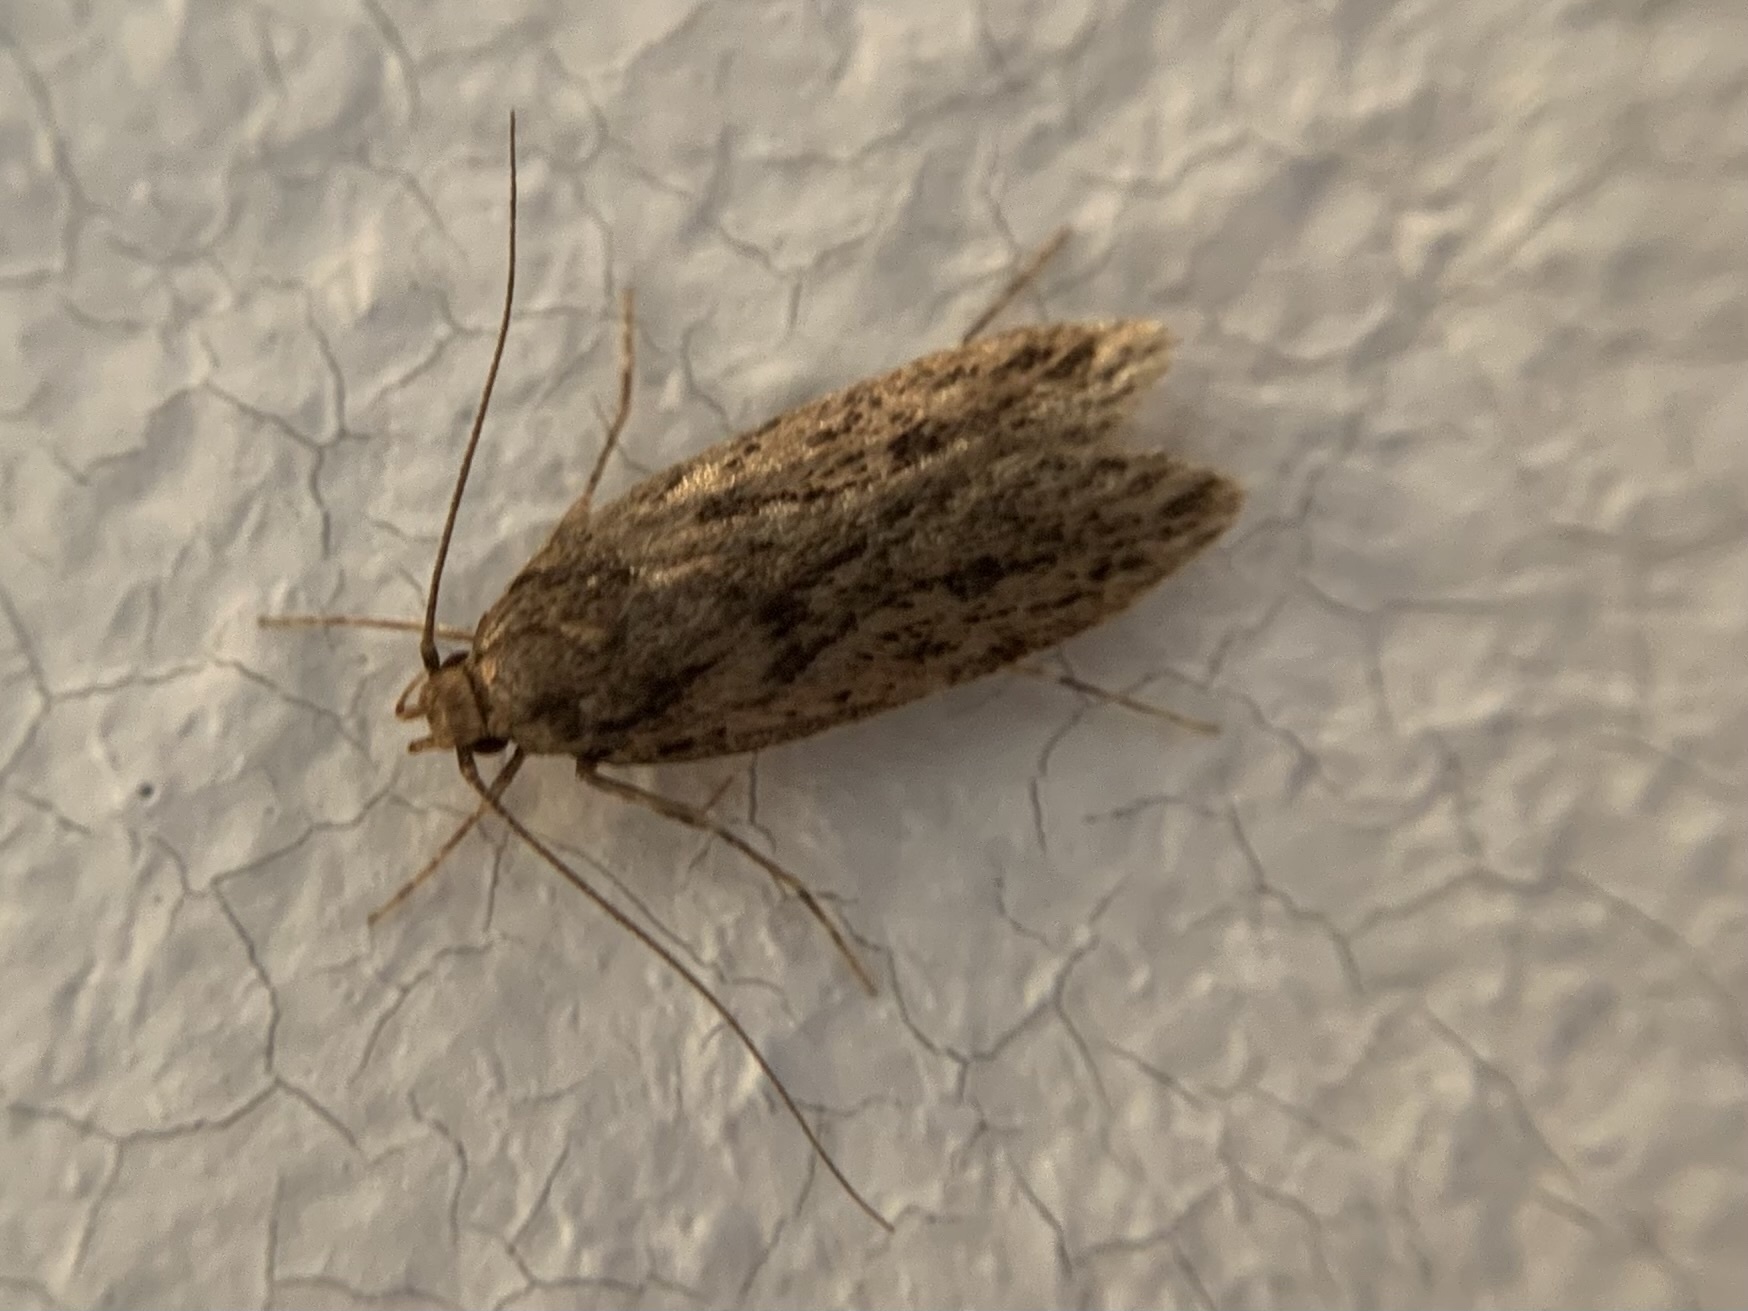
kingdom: Animalia
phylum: Arthropoda
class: Insecta
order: Lepidoptera
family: Oecophoridae
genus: Hofmannophila
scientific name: Hofmannophila pseudospretella
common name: Brown house moth
